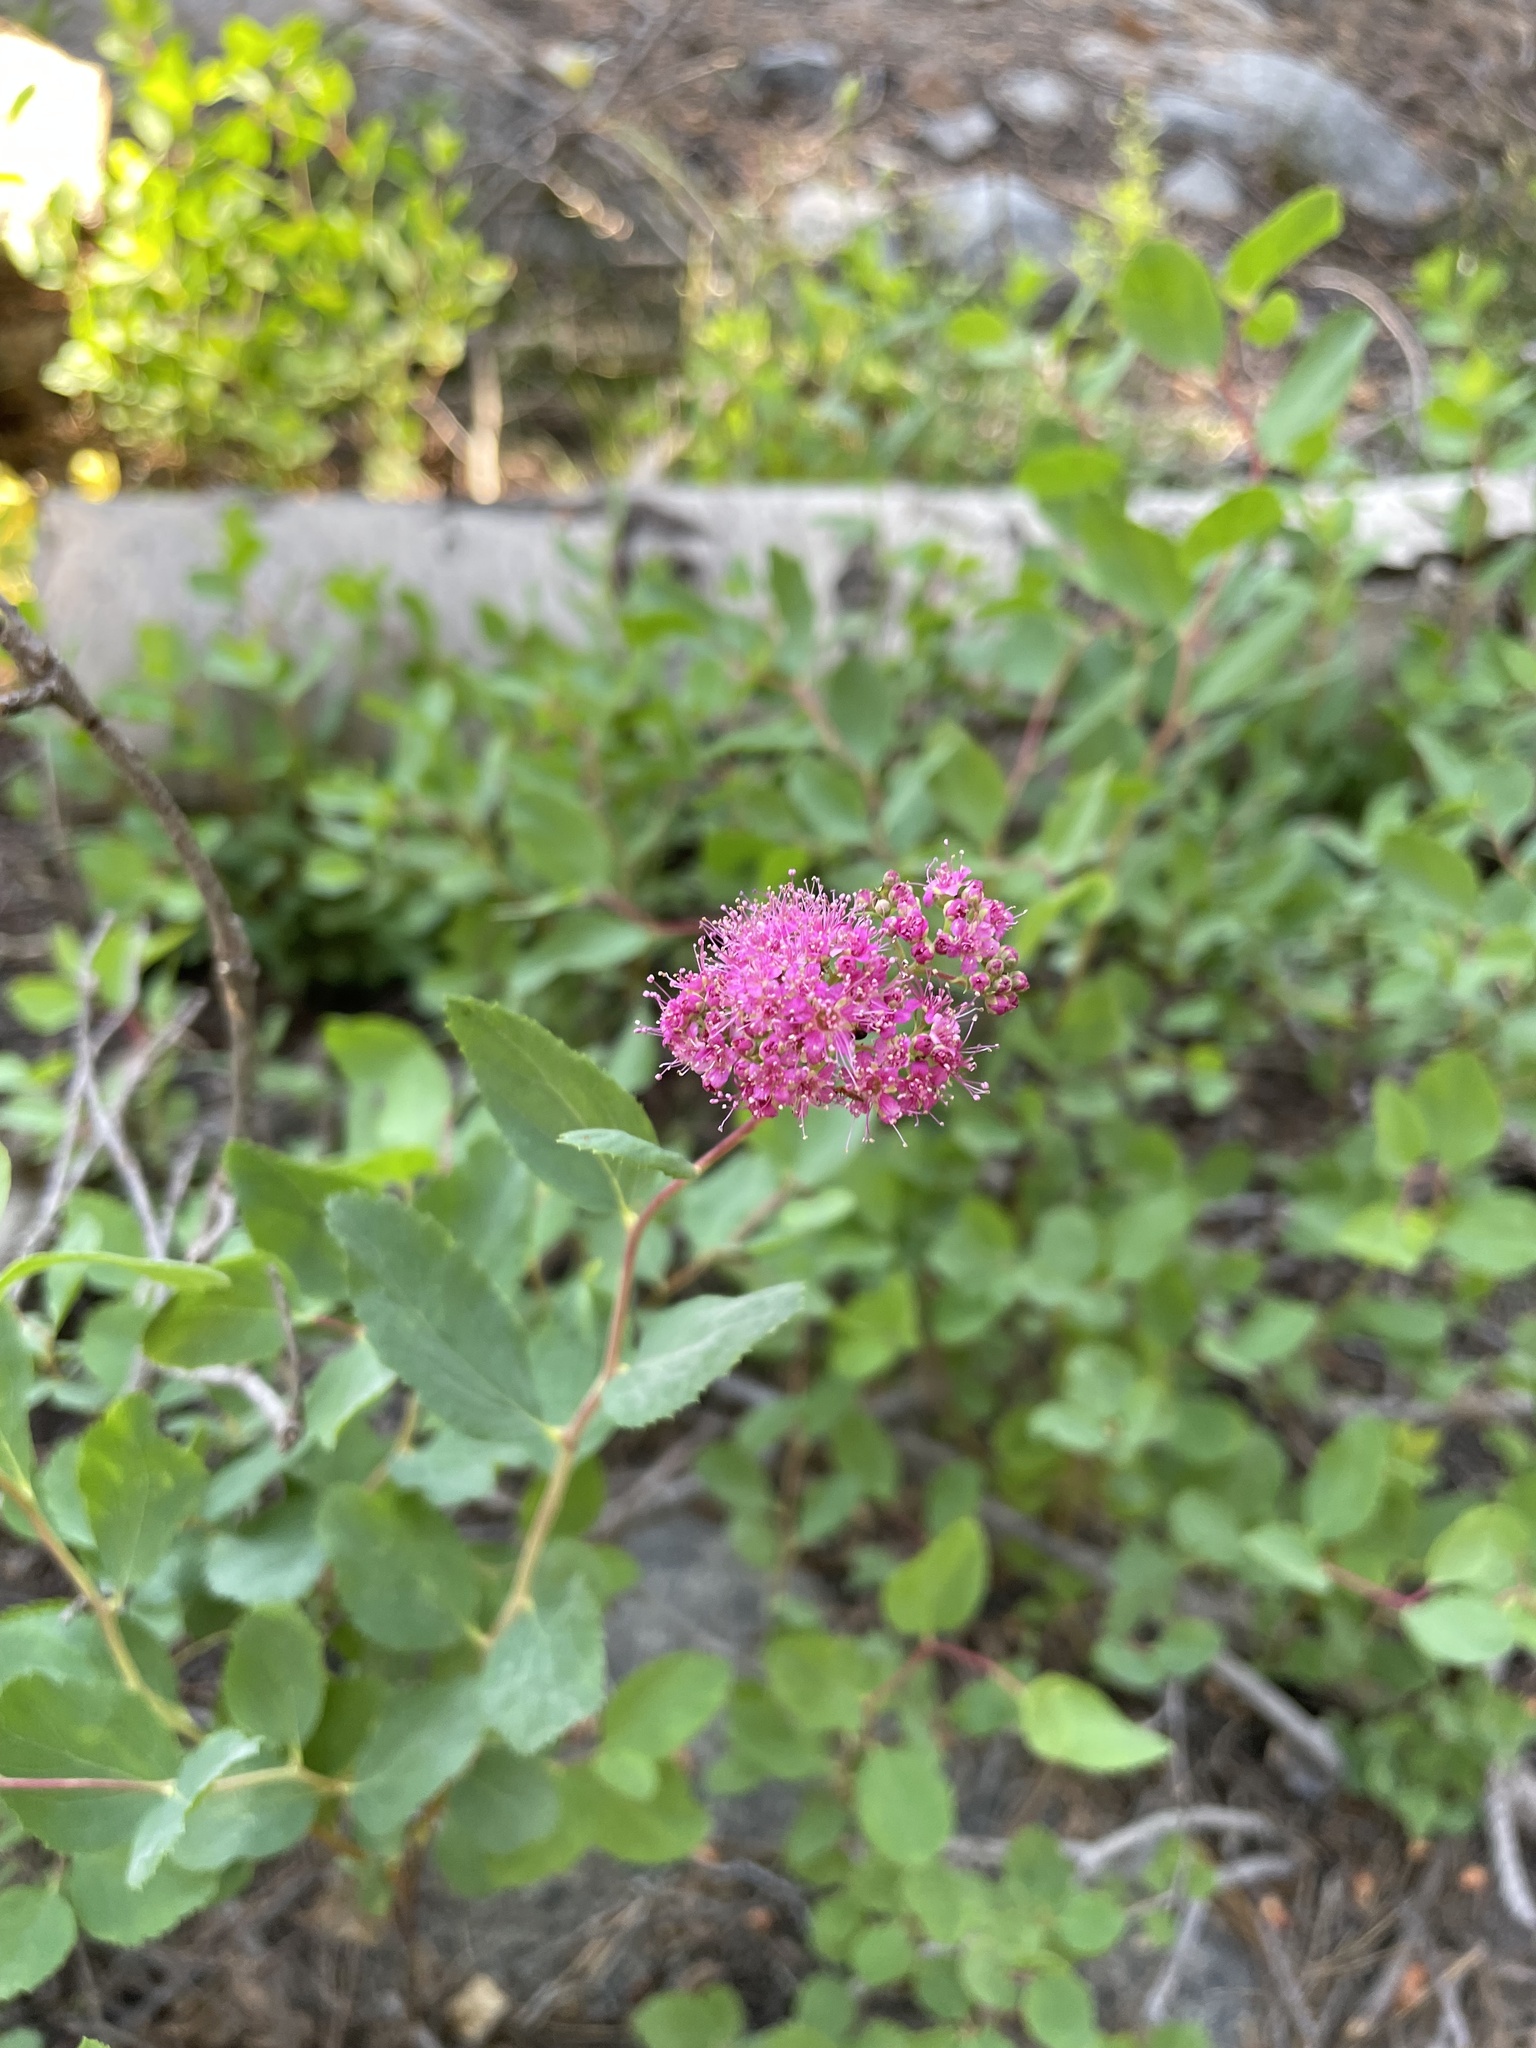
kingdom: Plantae
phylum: Tracheophyta
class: Magnoliopsida
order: Rosales
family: Rosaceae
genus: Spiraea
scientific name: Spiraea splendens
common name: Subalpine meadowsweet
